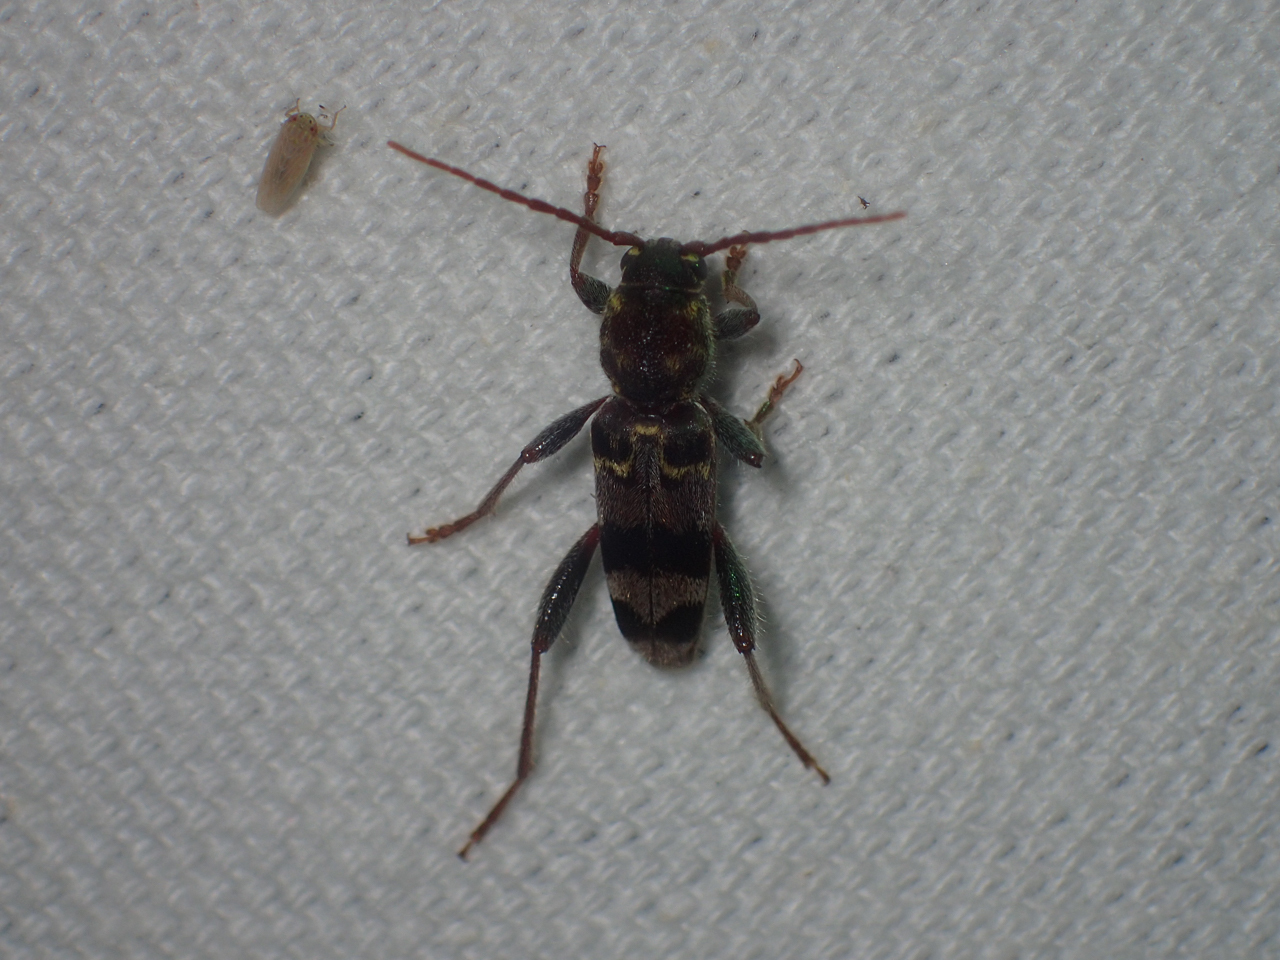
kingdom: Animalia
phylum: Arthropoda
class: Insecta
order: Coleoptera
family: Cerambycidae
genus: Xylotrechus
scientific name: Xylotrechus colonus
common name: Long-horned beetle
